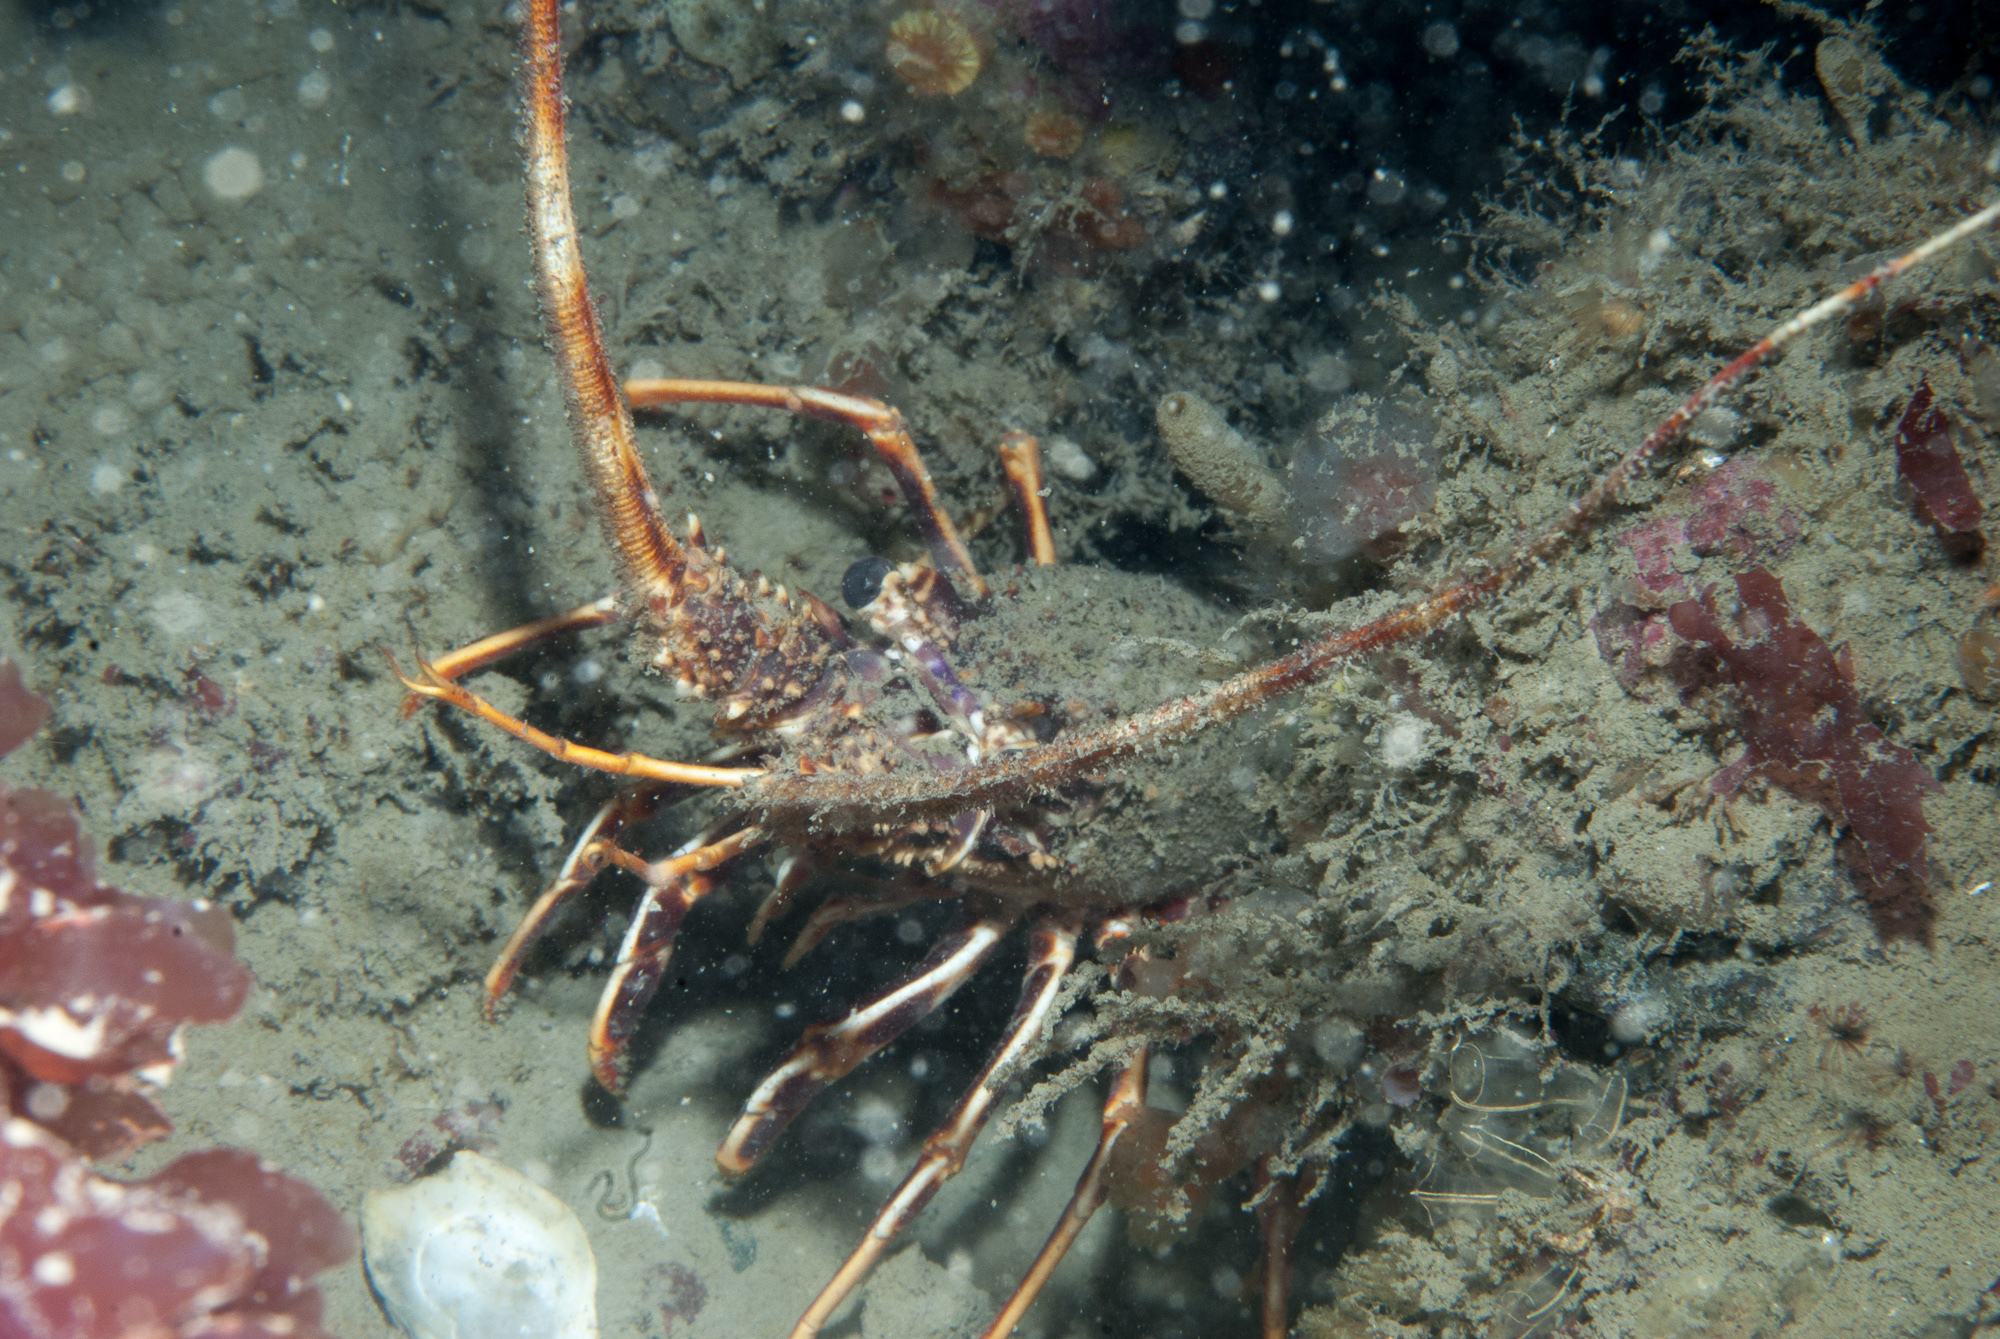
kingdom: Animalia
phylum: Arthropoda
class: Malacostraca
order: Decapoda
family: Palinuridae
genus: Palinurus
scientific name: Palinurus elephas
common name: European spiny lobster
